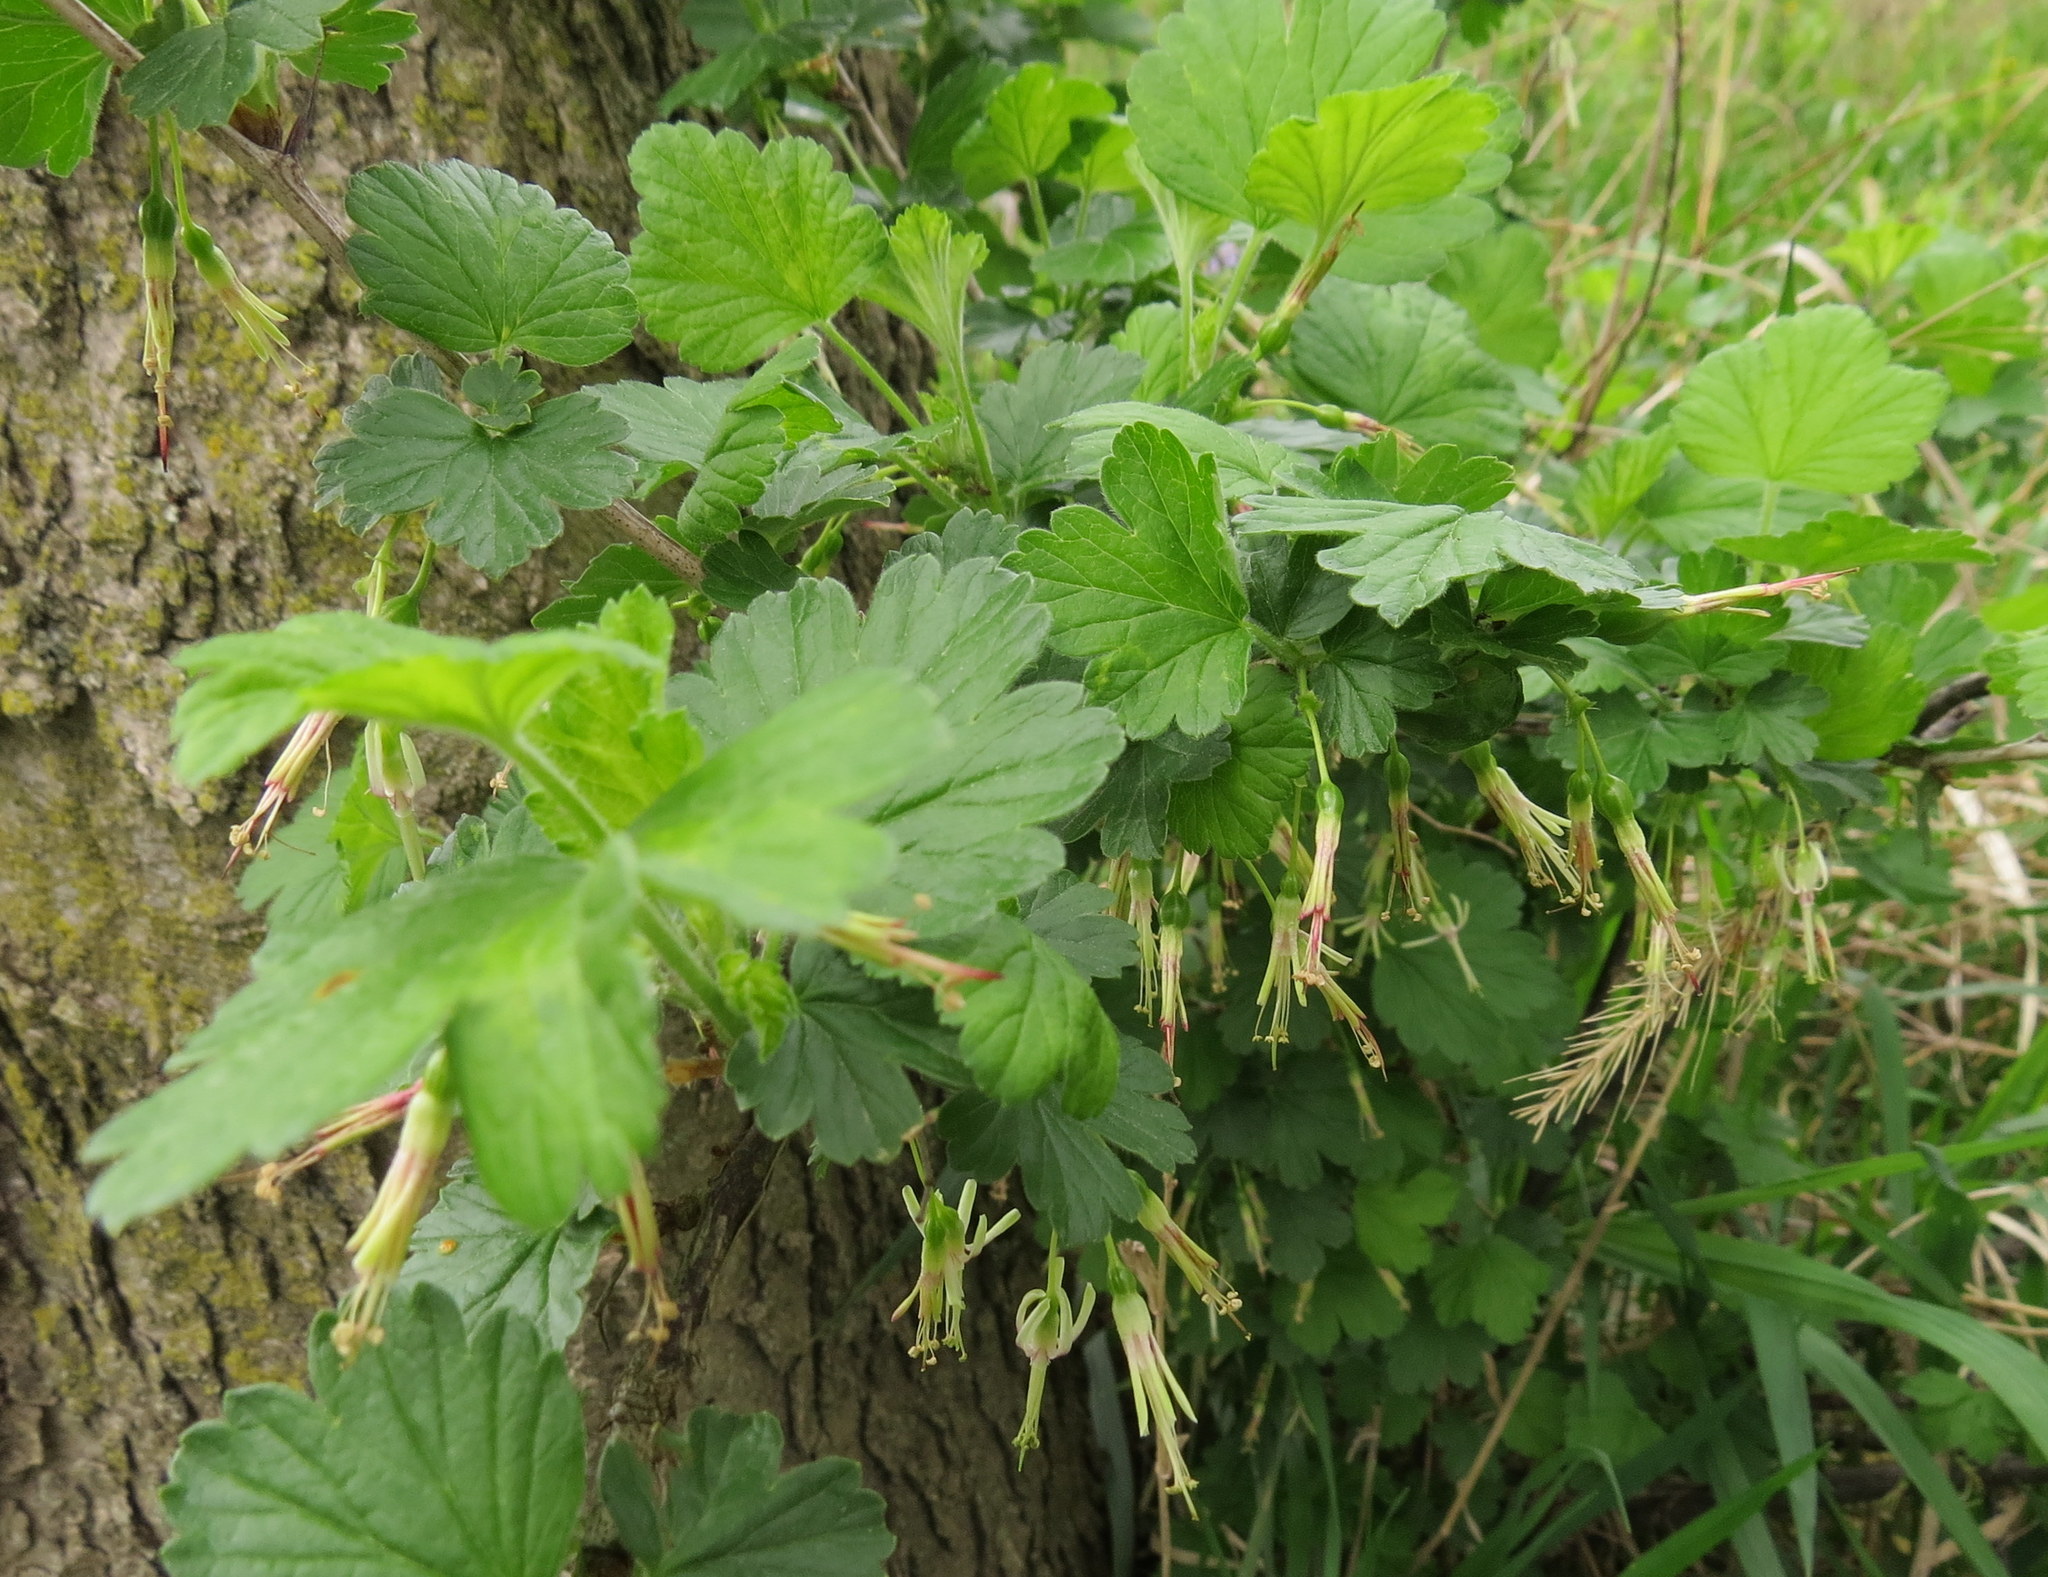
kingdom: Plantae
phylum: Tracheophyta
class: Magnoliopsida
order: Saxifragales
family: Grossulariaceae
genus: Ribes
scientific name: Ribes missouriense
